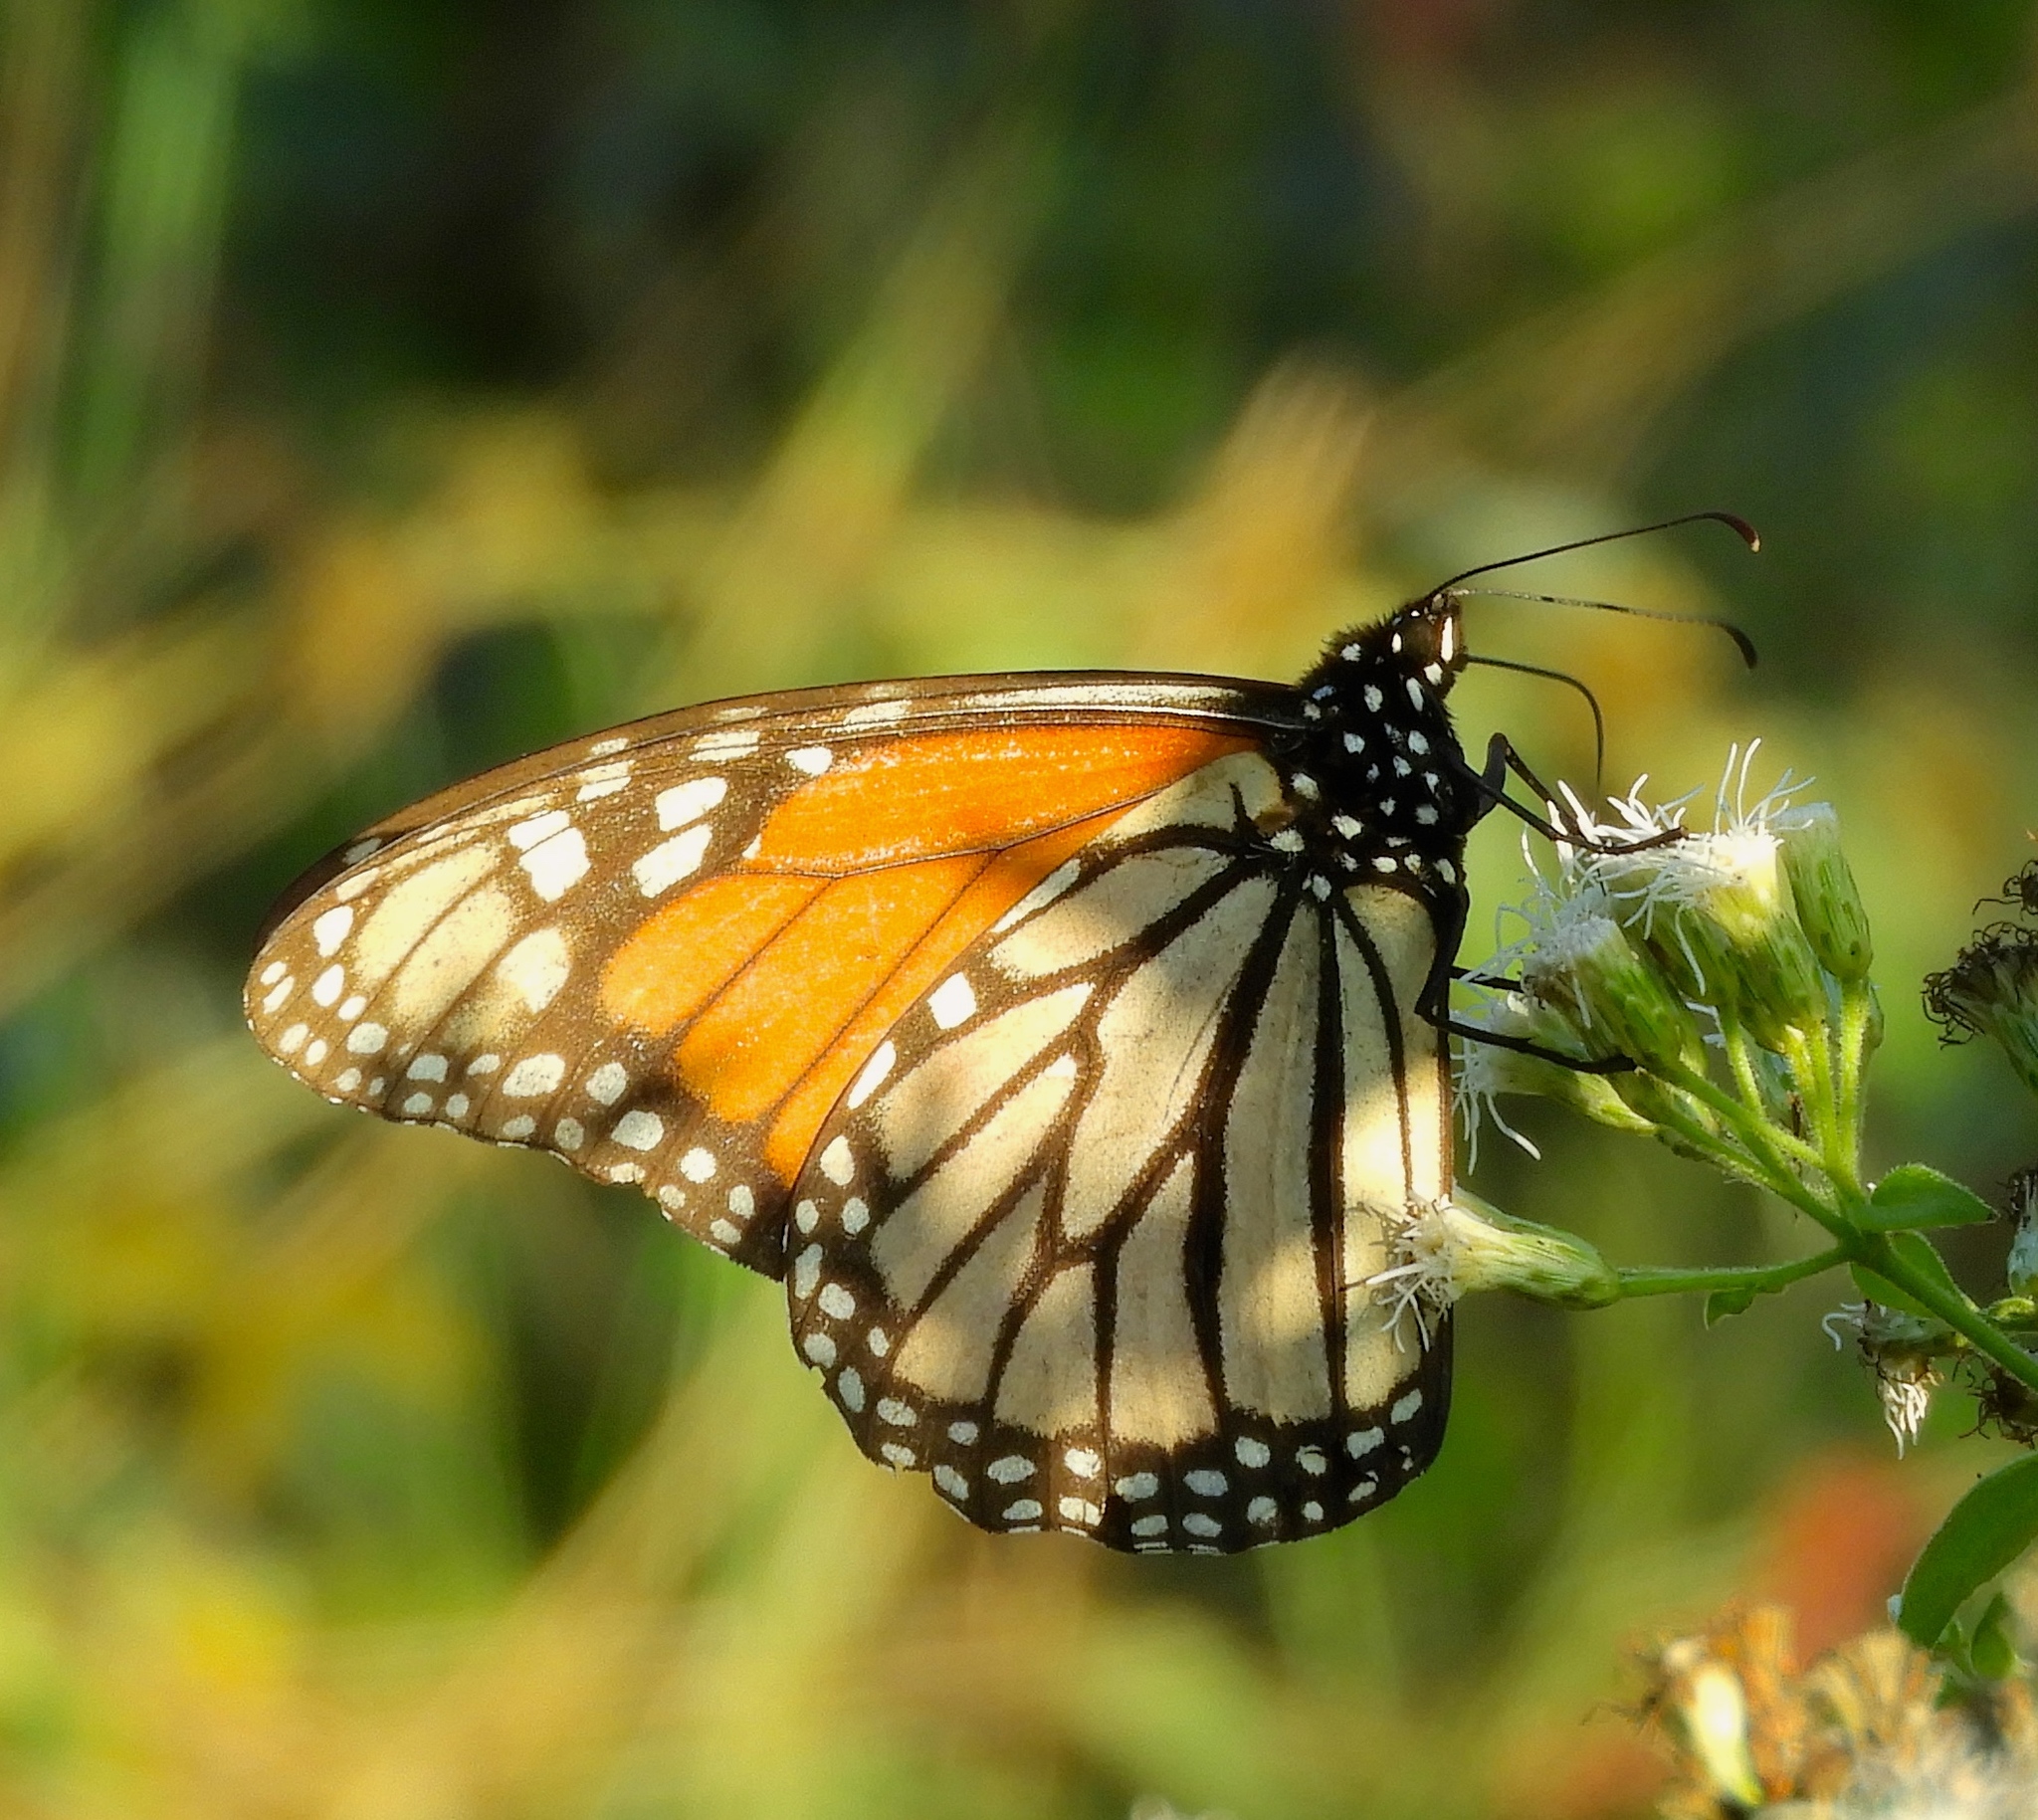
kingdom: Animalia
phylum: Arthropoda
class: Insecta
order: Lepidoptera
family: Nymphalidae
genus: Danaus
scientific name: Danaus plexippus
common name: Monarch
